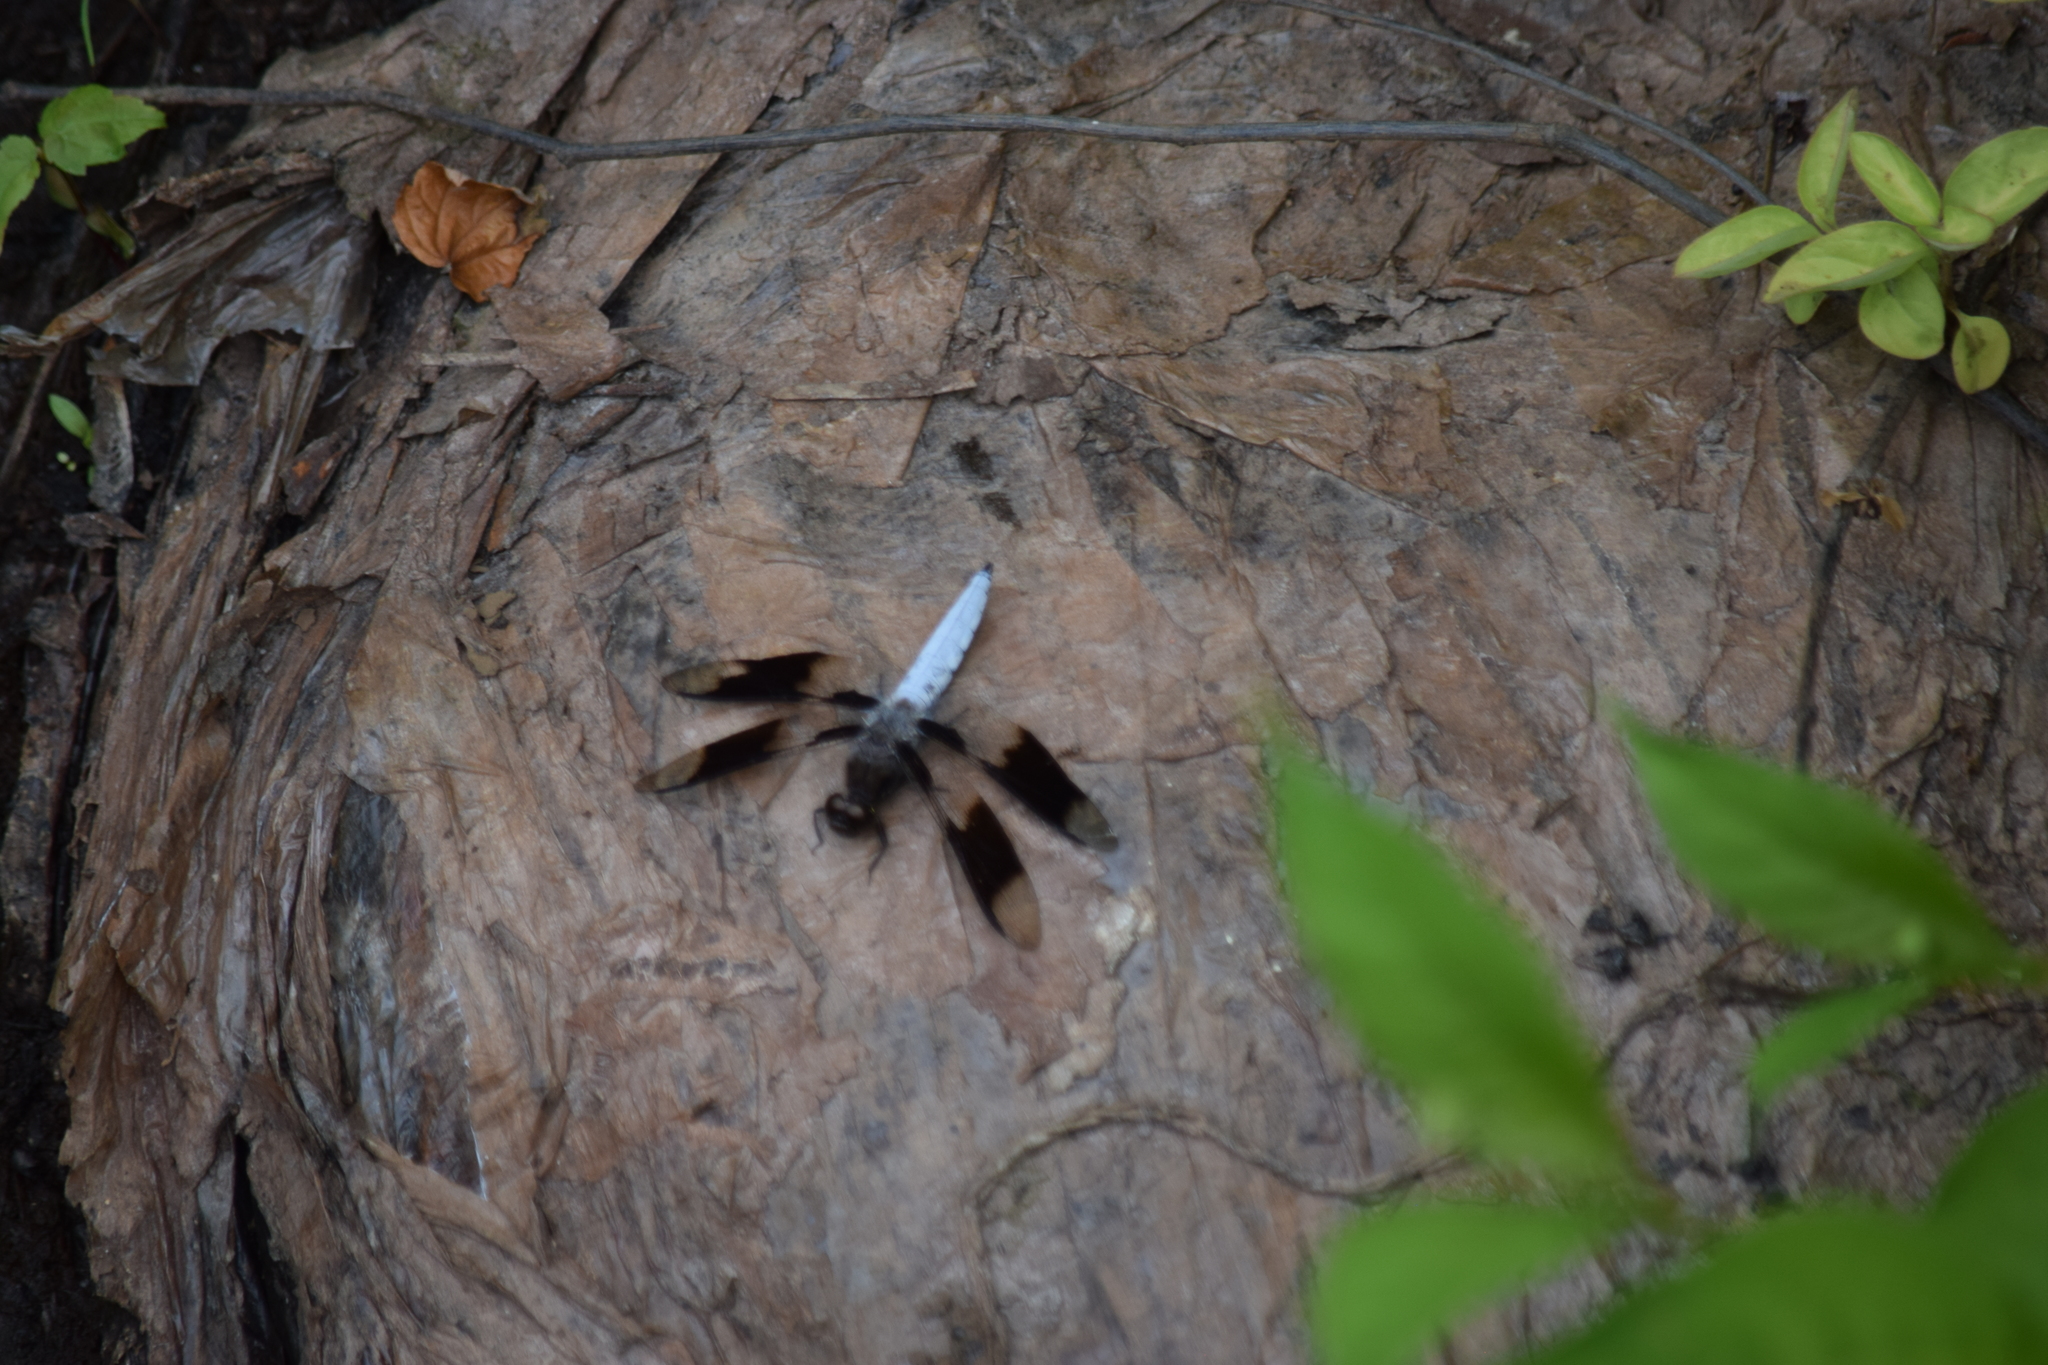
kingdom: Animalia
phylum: Arthropoda
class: Insecta
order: Odonata
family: Libellulidae
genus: Plathemis
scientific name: Plathemis lydia
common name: Common whitetail
